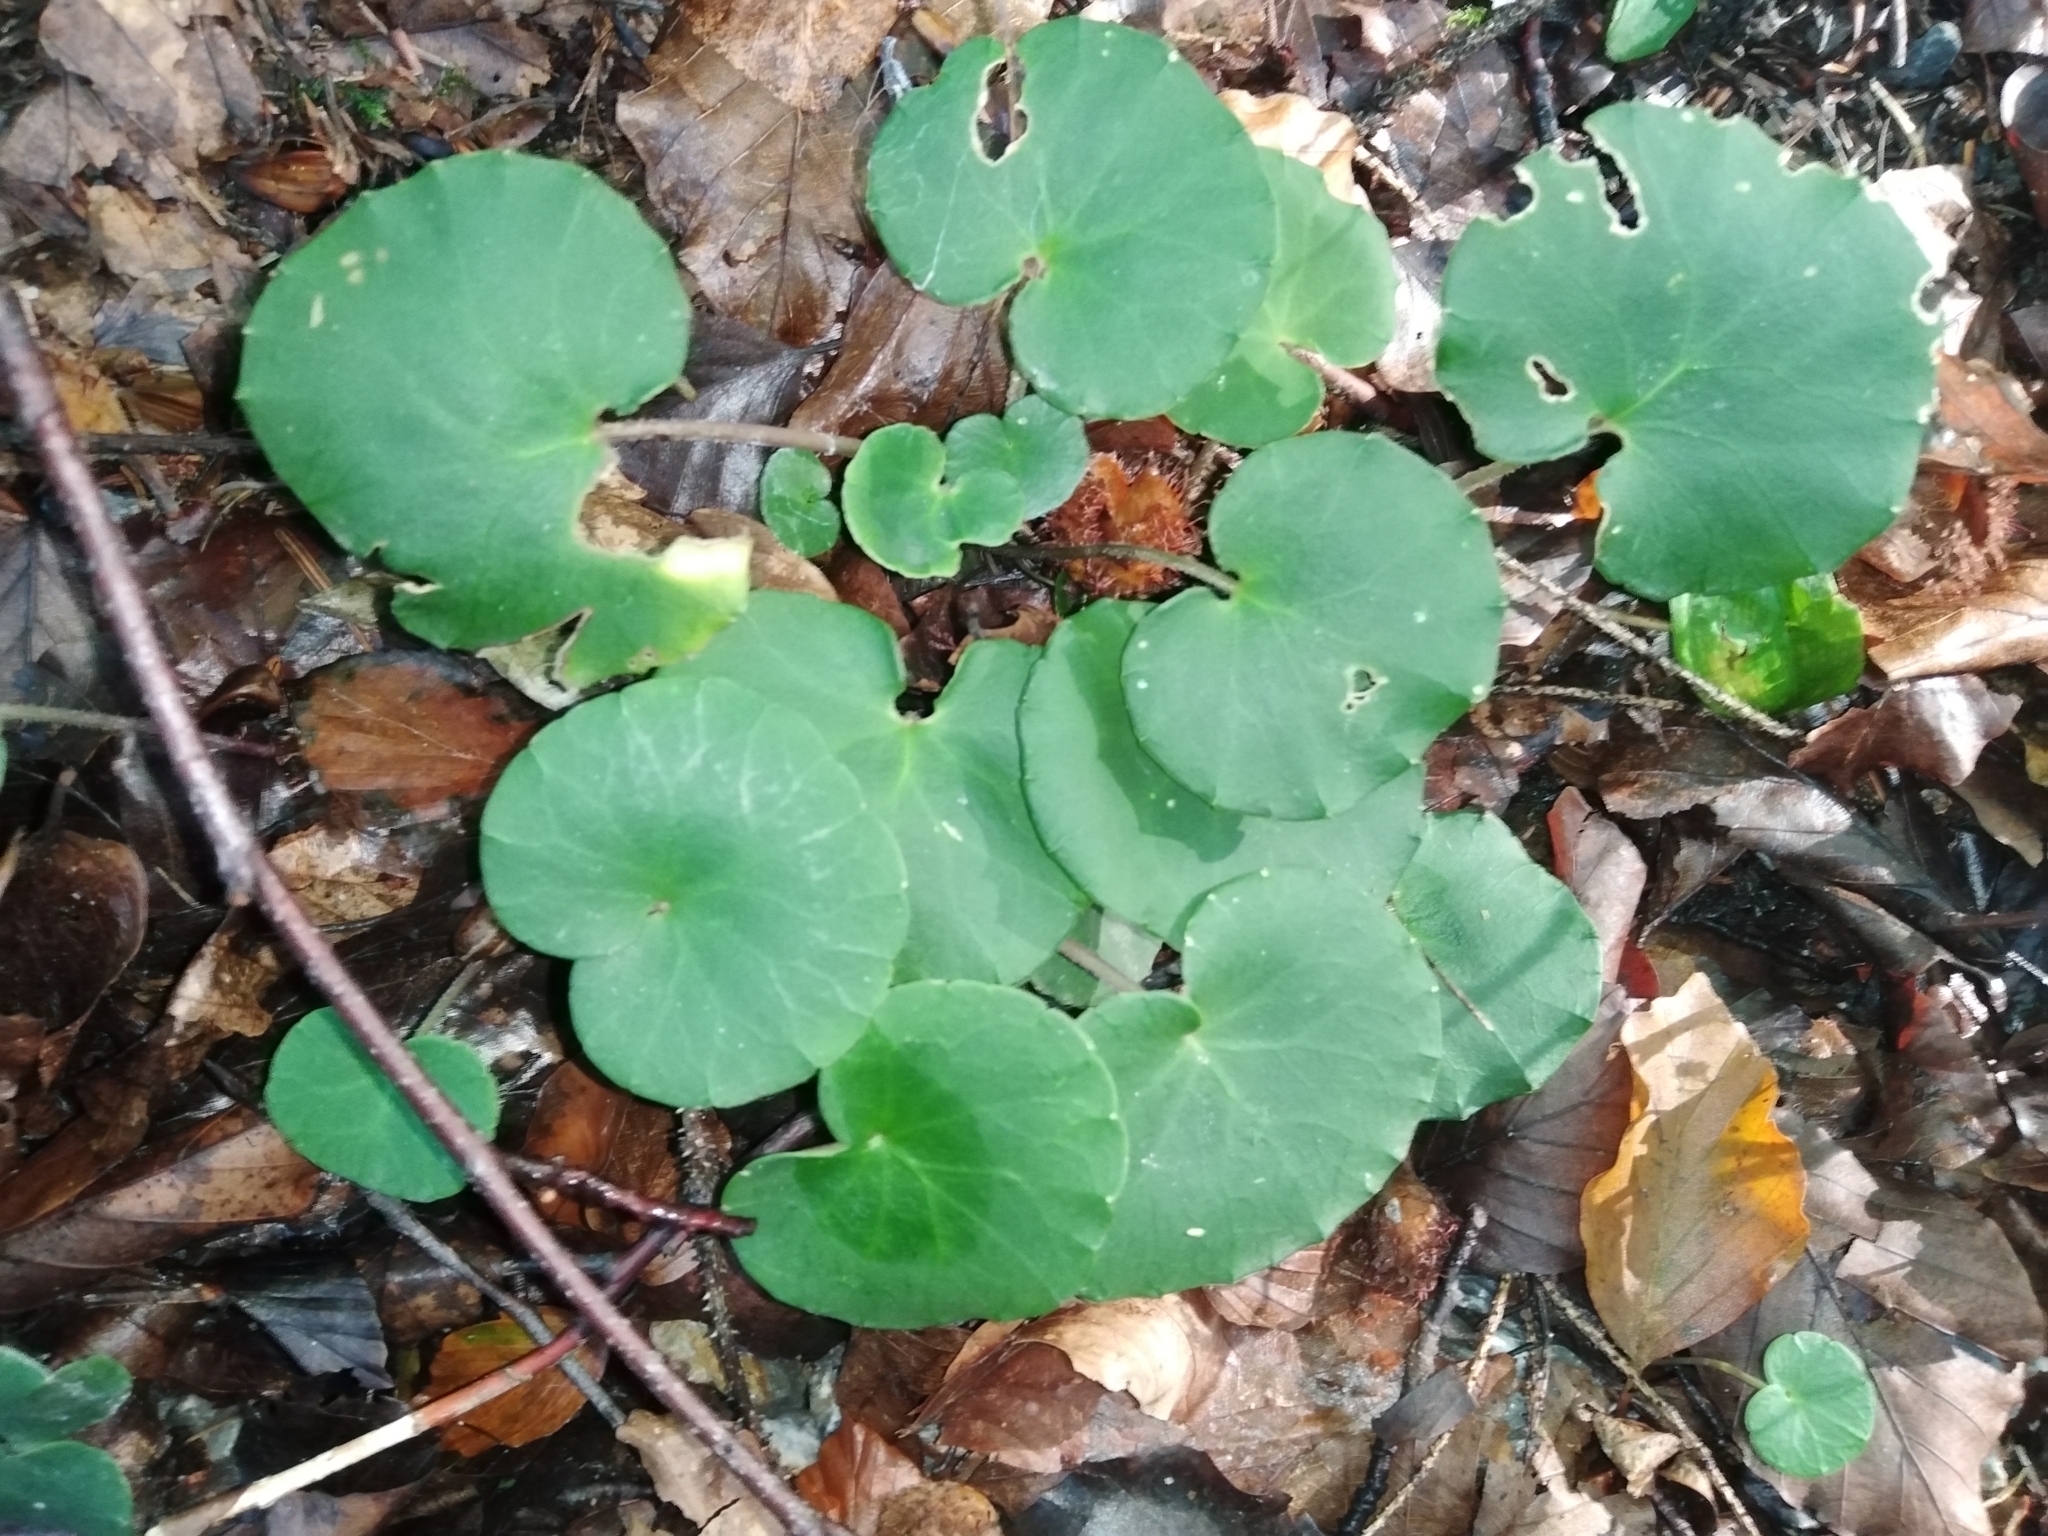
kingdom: Plantae
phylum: Tracheophyta
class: Magnoliopsida
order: Ericales
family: Primulaceae
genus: Soldanella
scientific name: Soldanella montana
